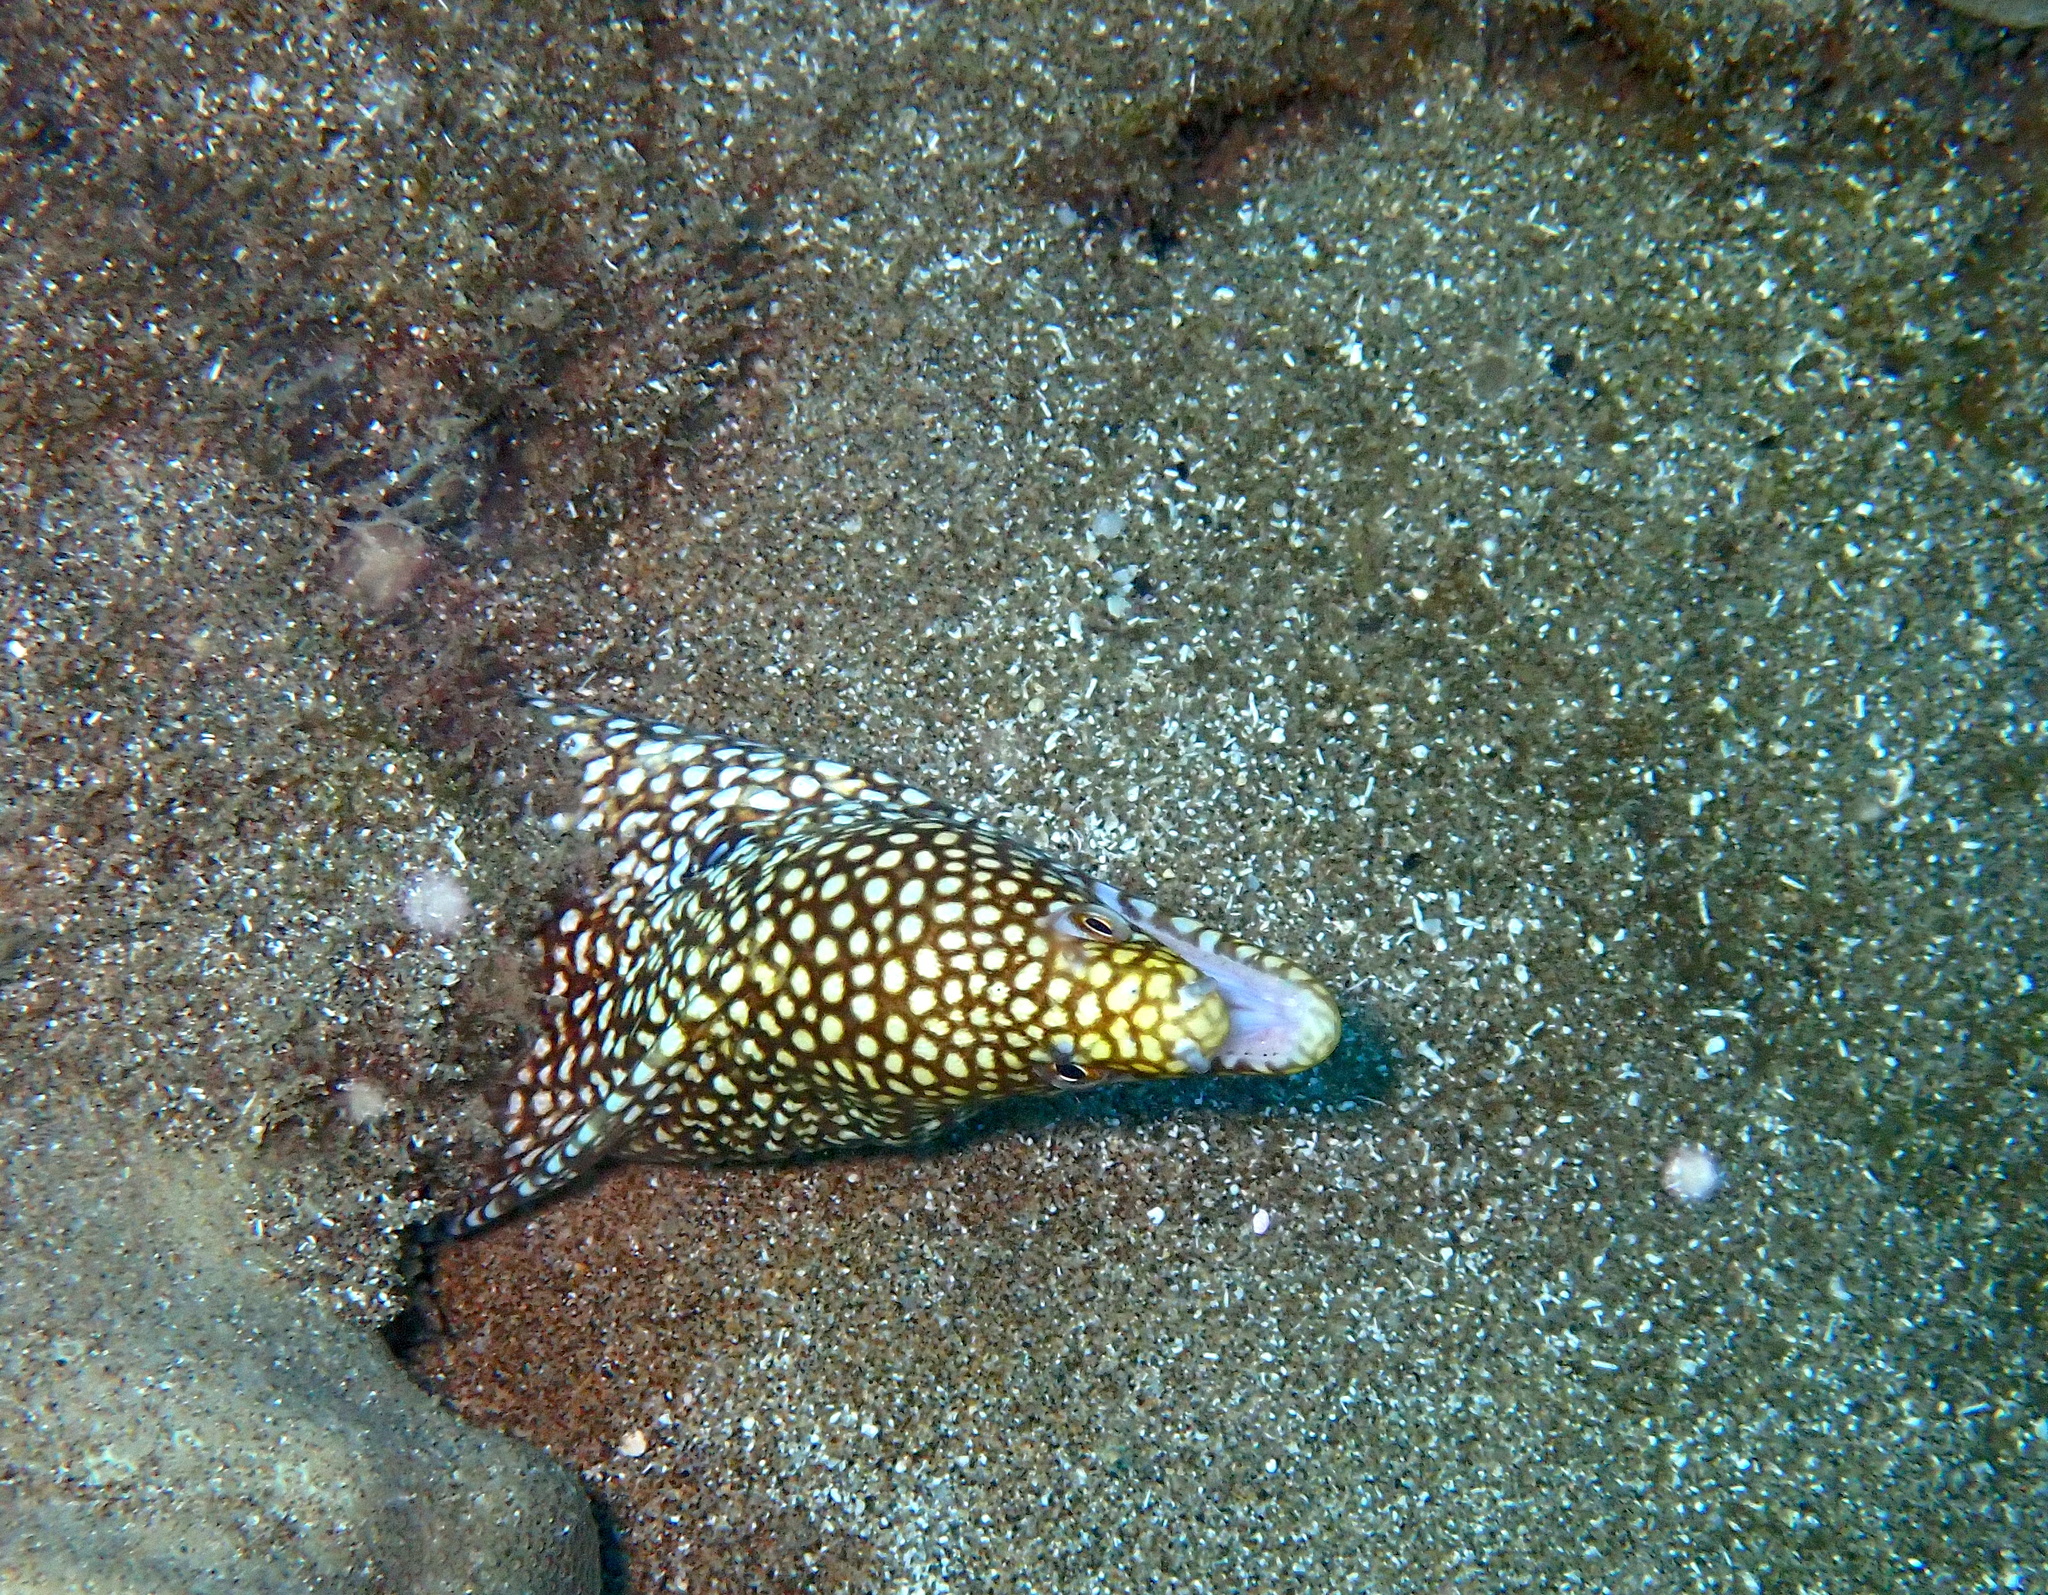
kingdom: Animalia
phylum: Chordata
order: Anguilliformes
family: Muraenidae
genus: Gymnothorax
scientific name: Gymnothorax meleagris
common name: Guineafowl moray
